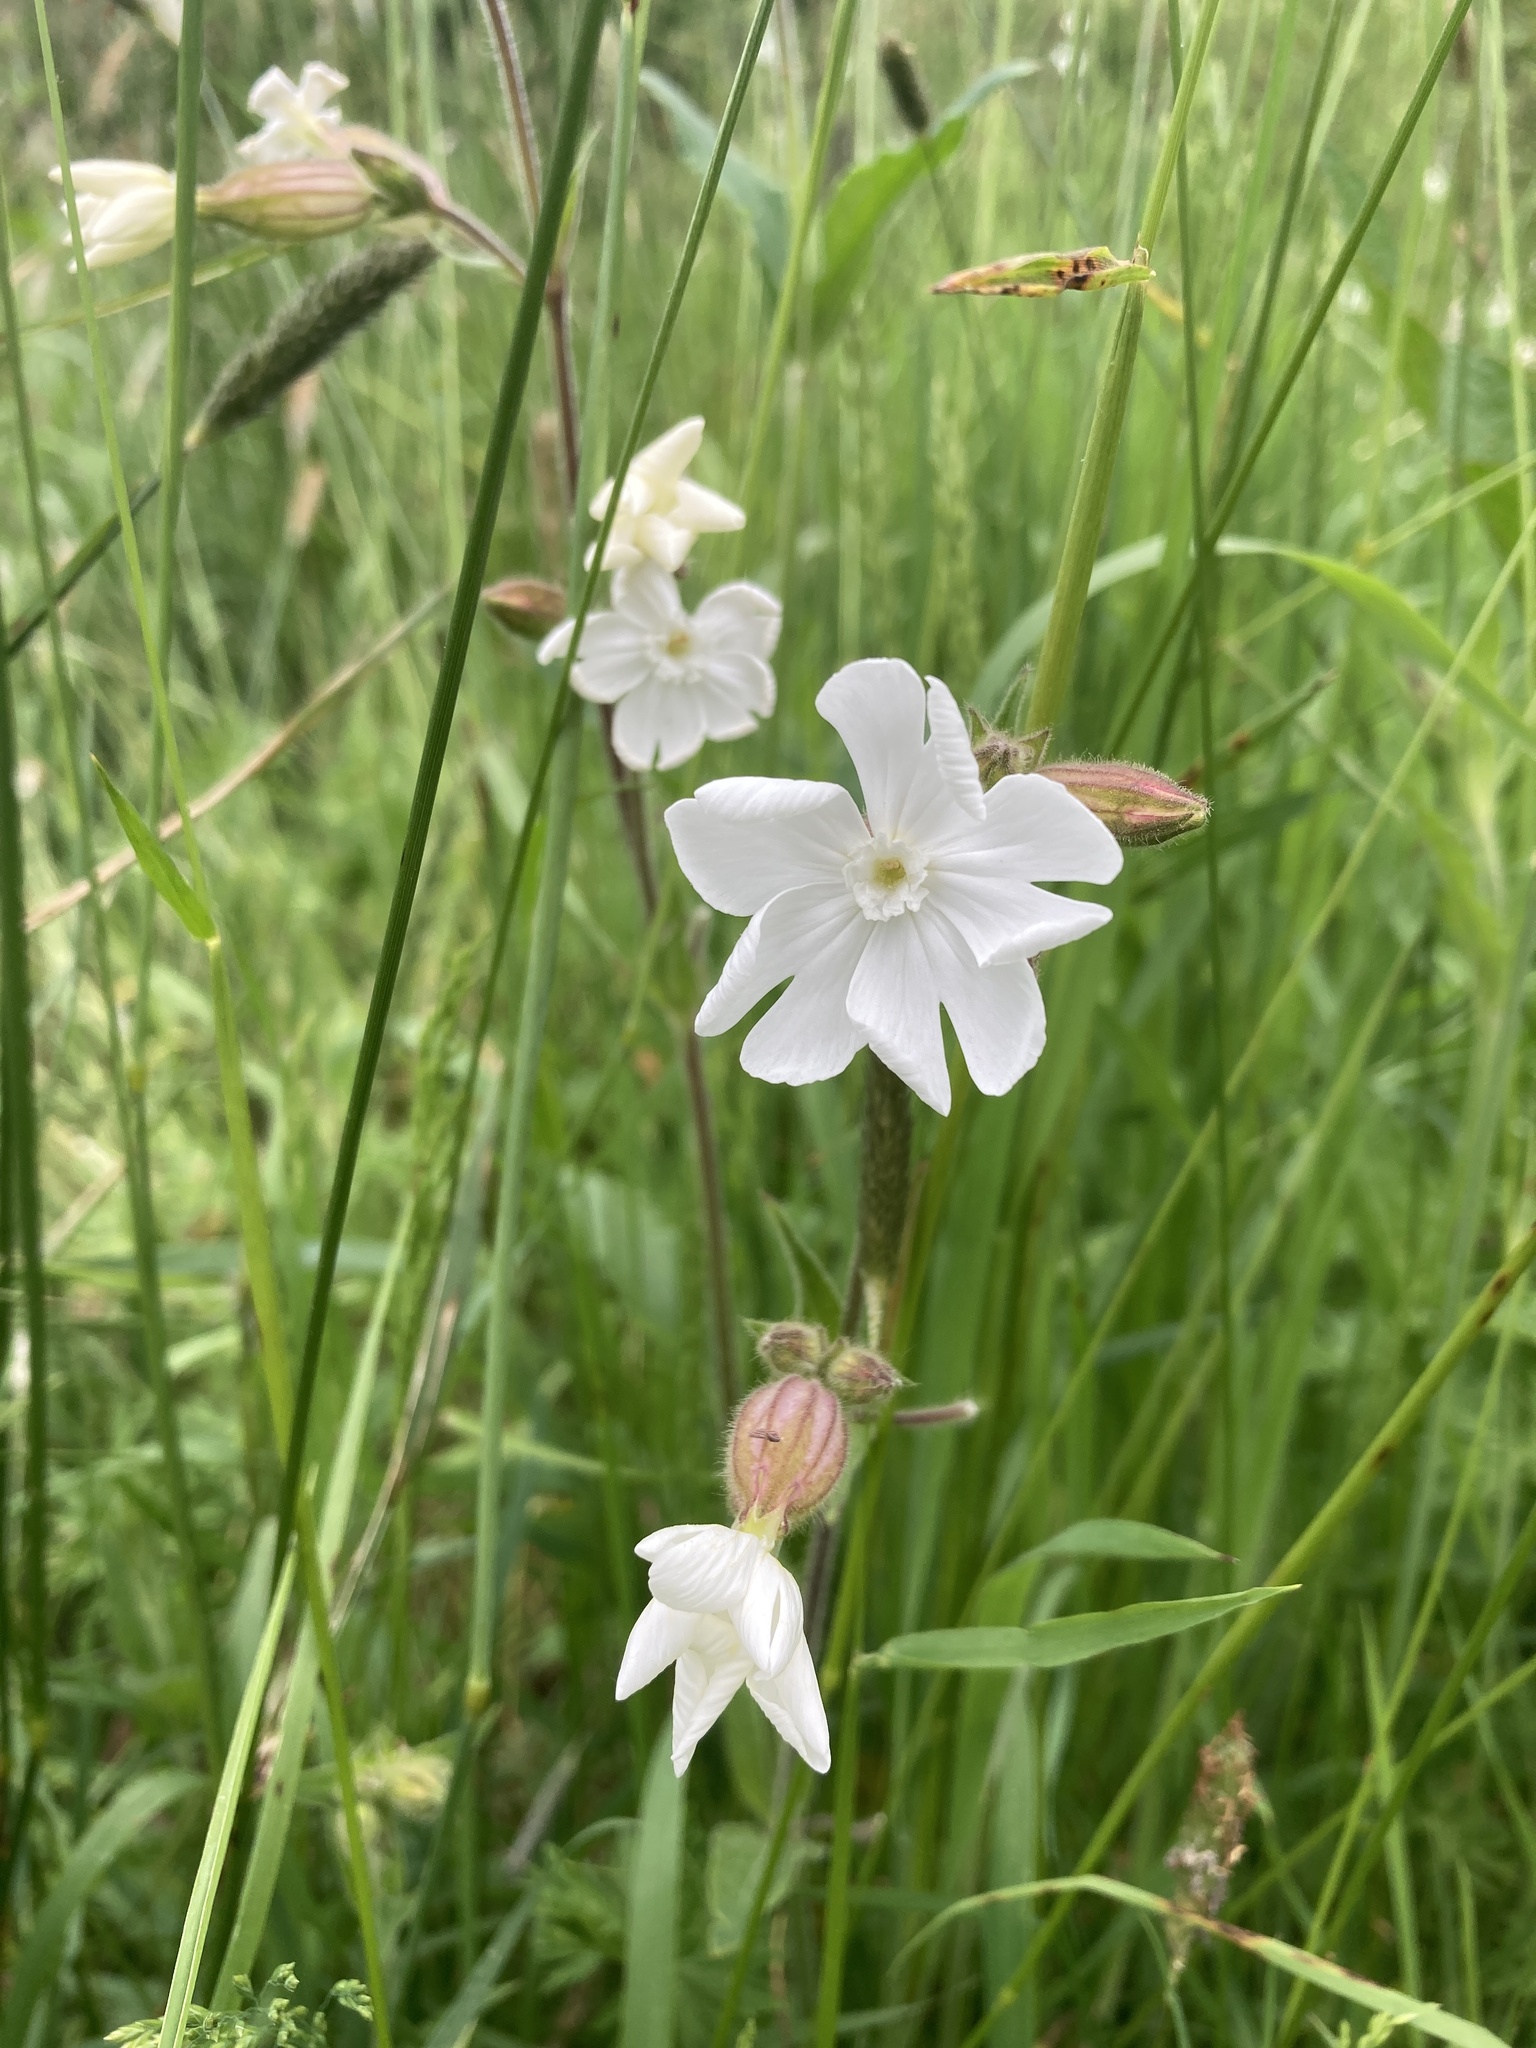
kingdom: Plantae
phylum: Tracheophyta
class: Magnoliopsida
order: Caryophyllales
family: Caryophyllaceae
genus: Silene
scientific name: Silene latifolia
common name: White campion
